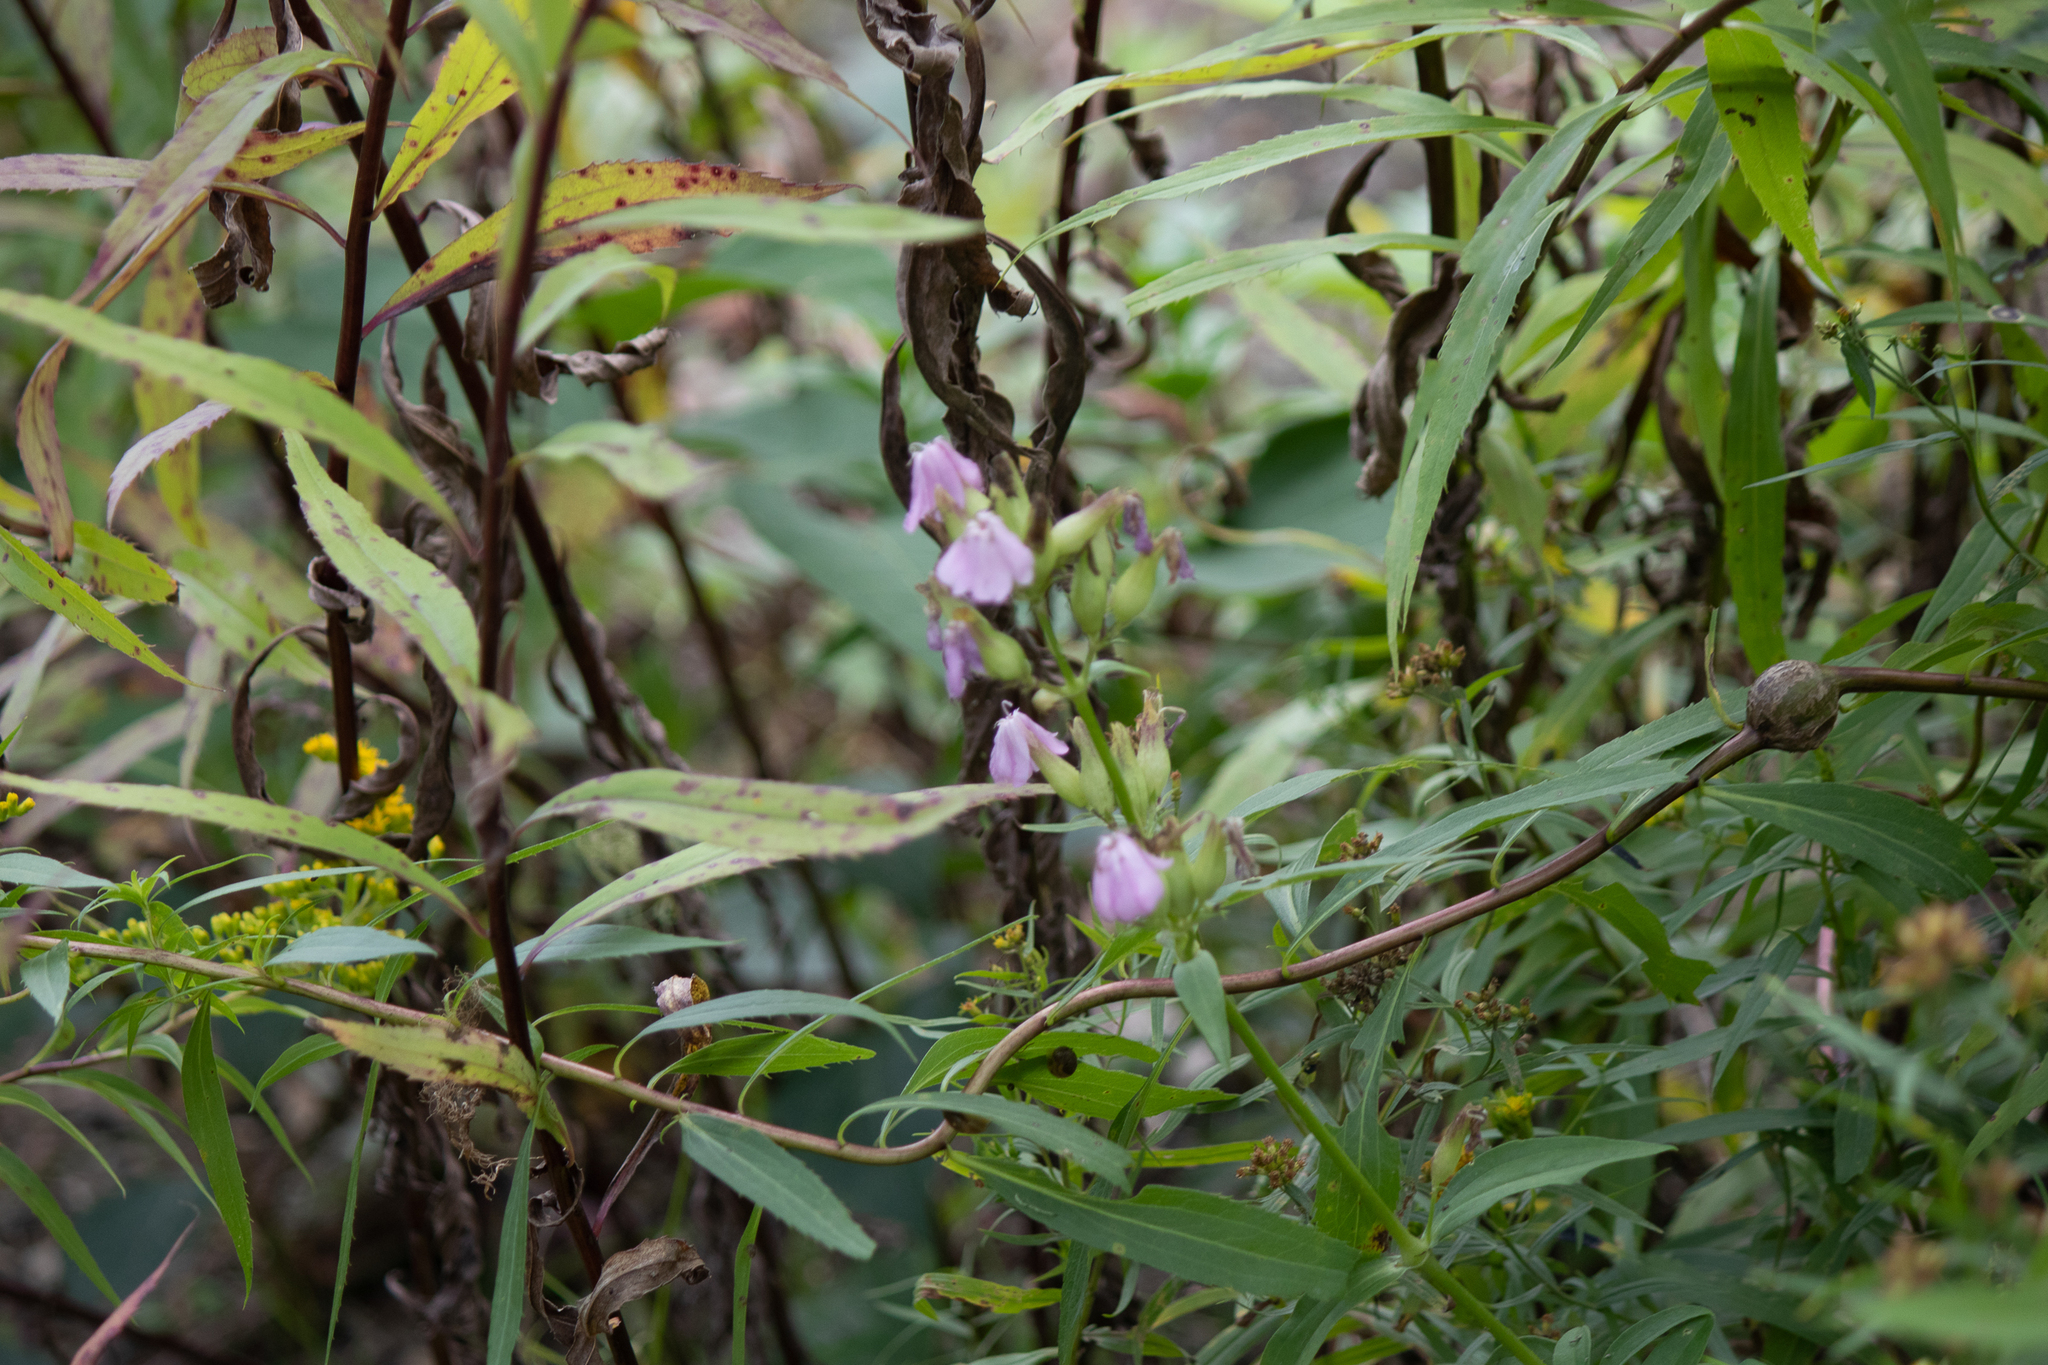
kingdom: Plantae
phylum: Tracheophyta
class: Magnoliopsida
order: Caryophyllales
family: Caryophyllaceae
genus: Saponaria
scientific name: Saponaria officinalis
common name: Soapwort
